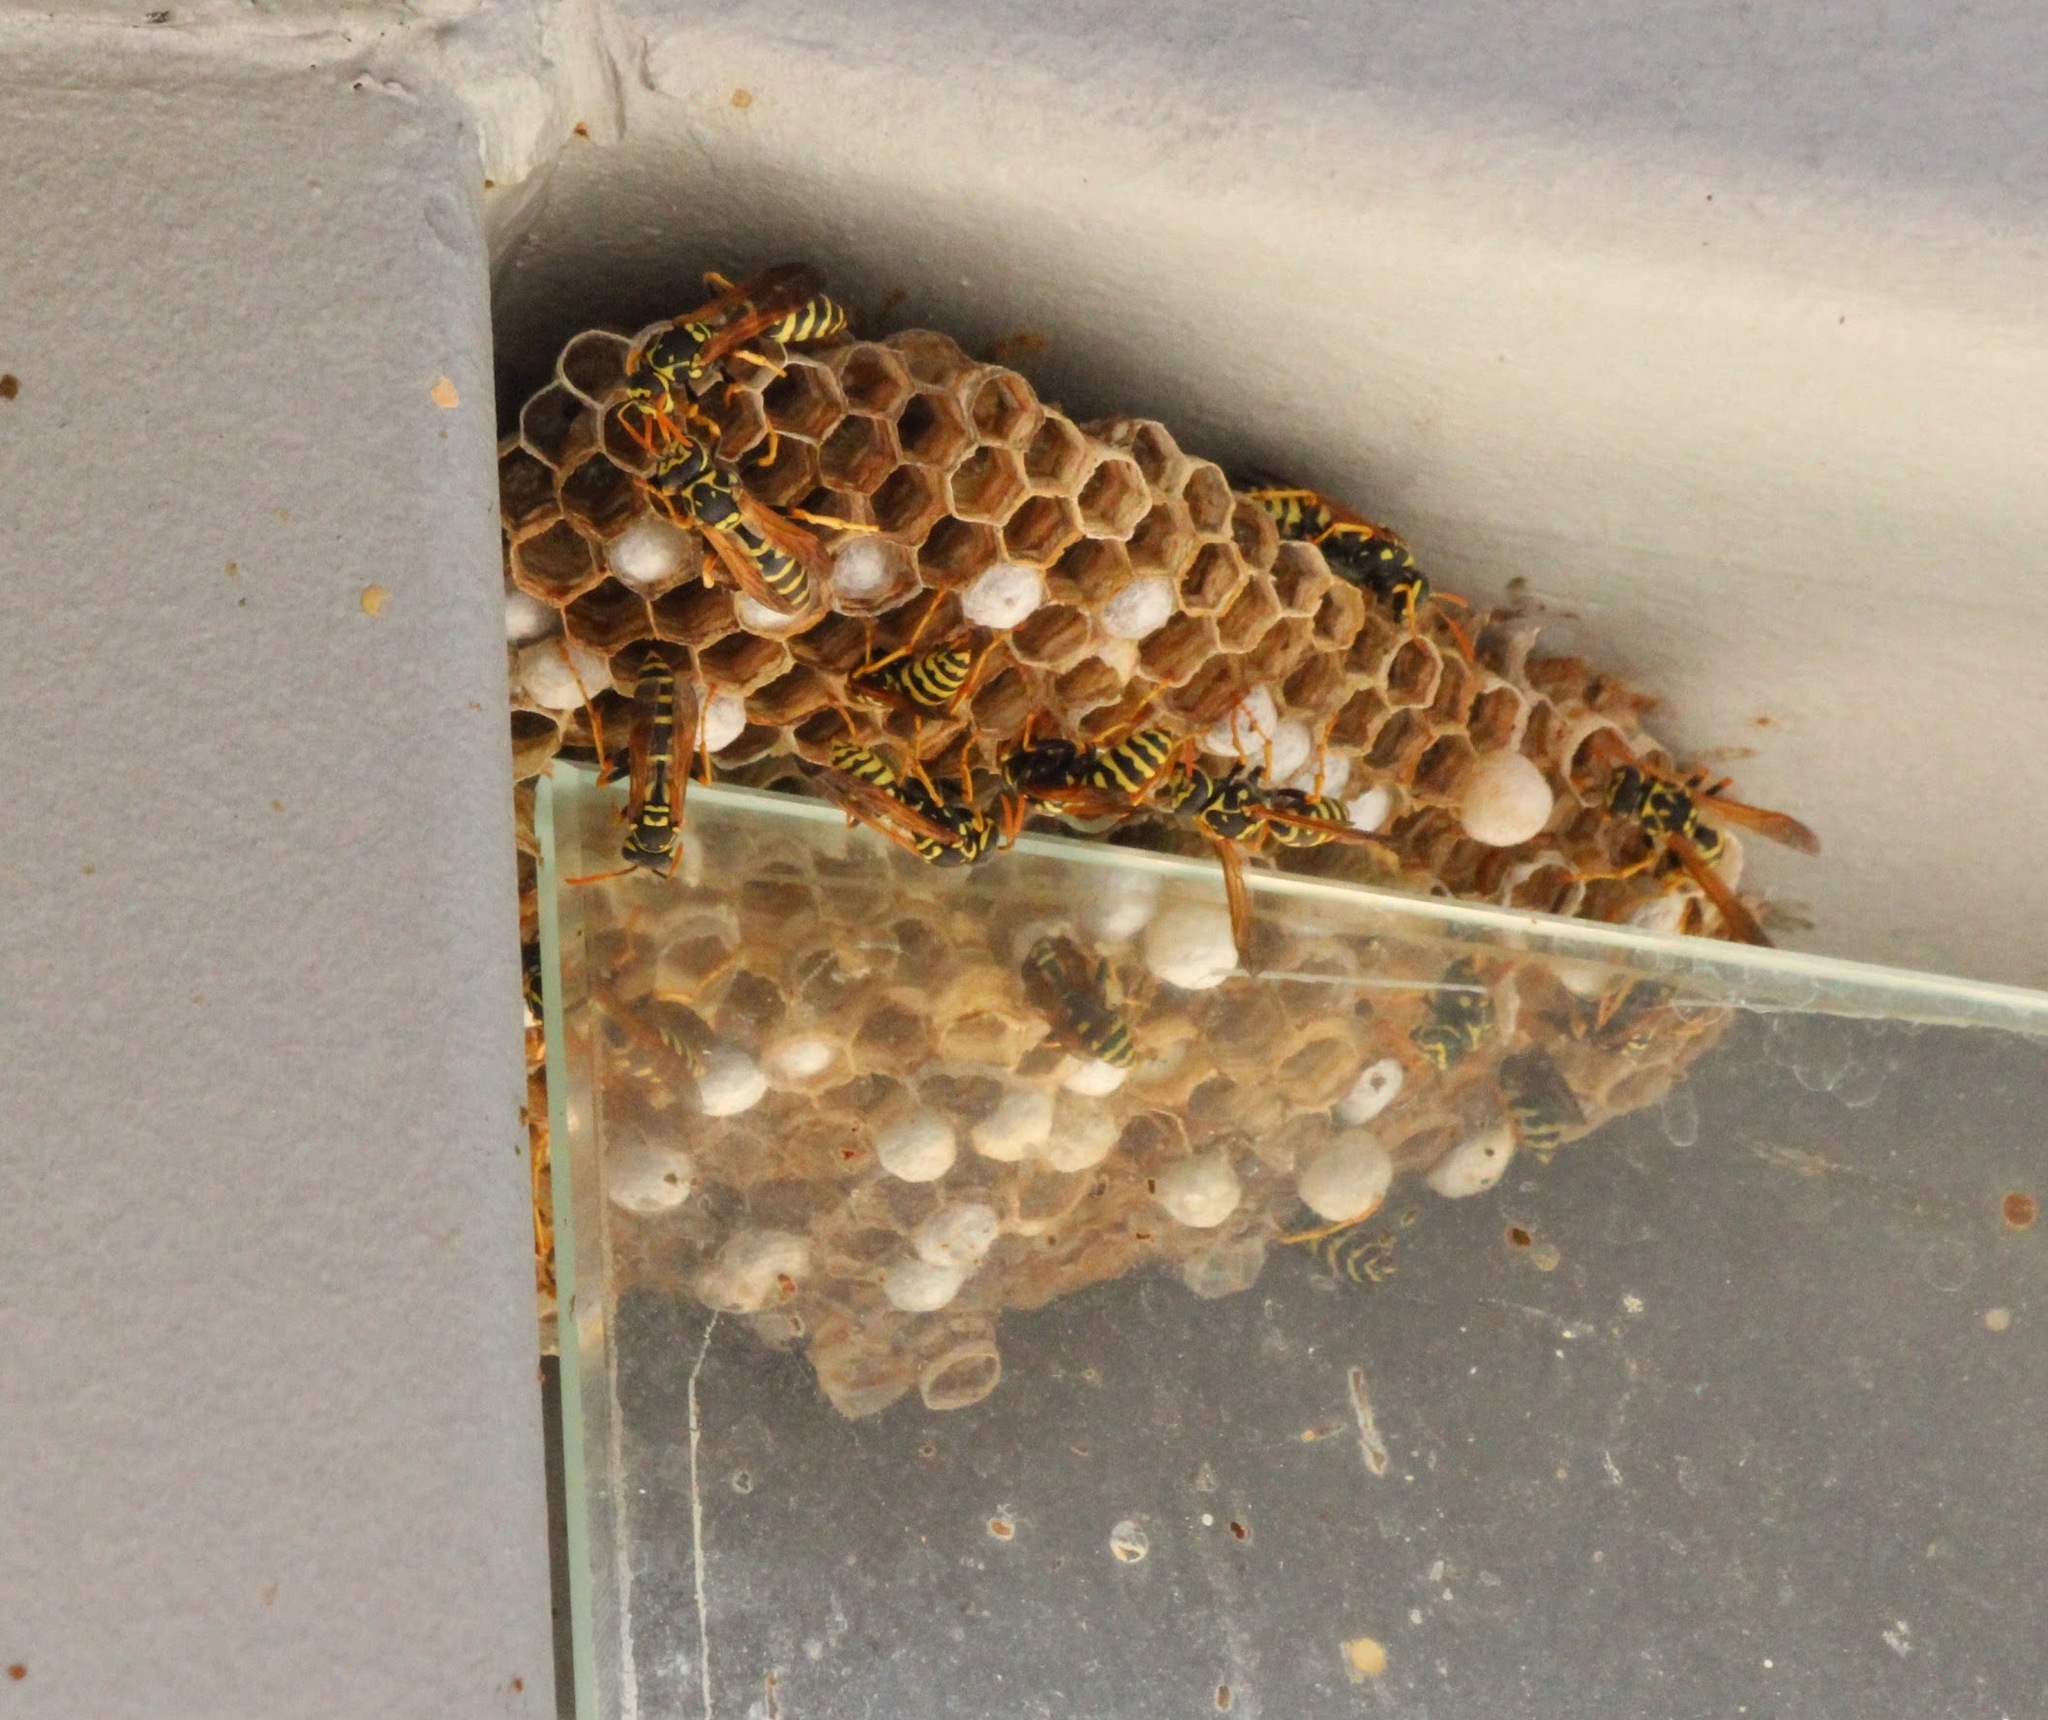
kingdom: Animalia
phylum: Arthropoda
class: Insecta
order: Hymenoptera
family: Eumenidae
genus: Polistes
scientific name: Polistes dominula
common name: Paper wasp
